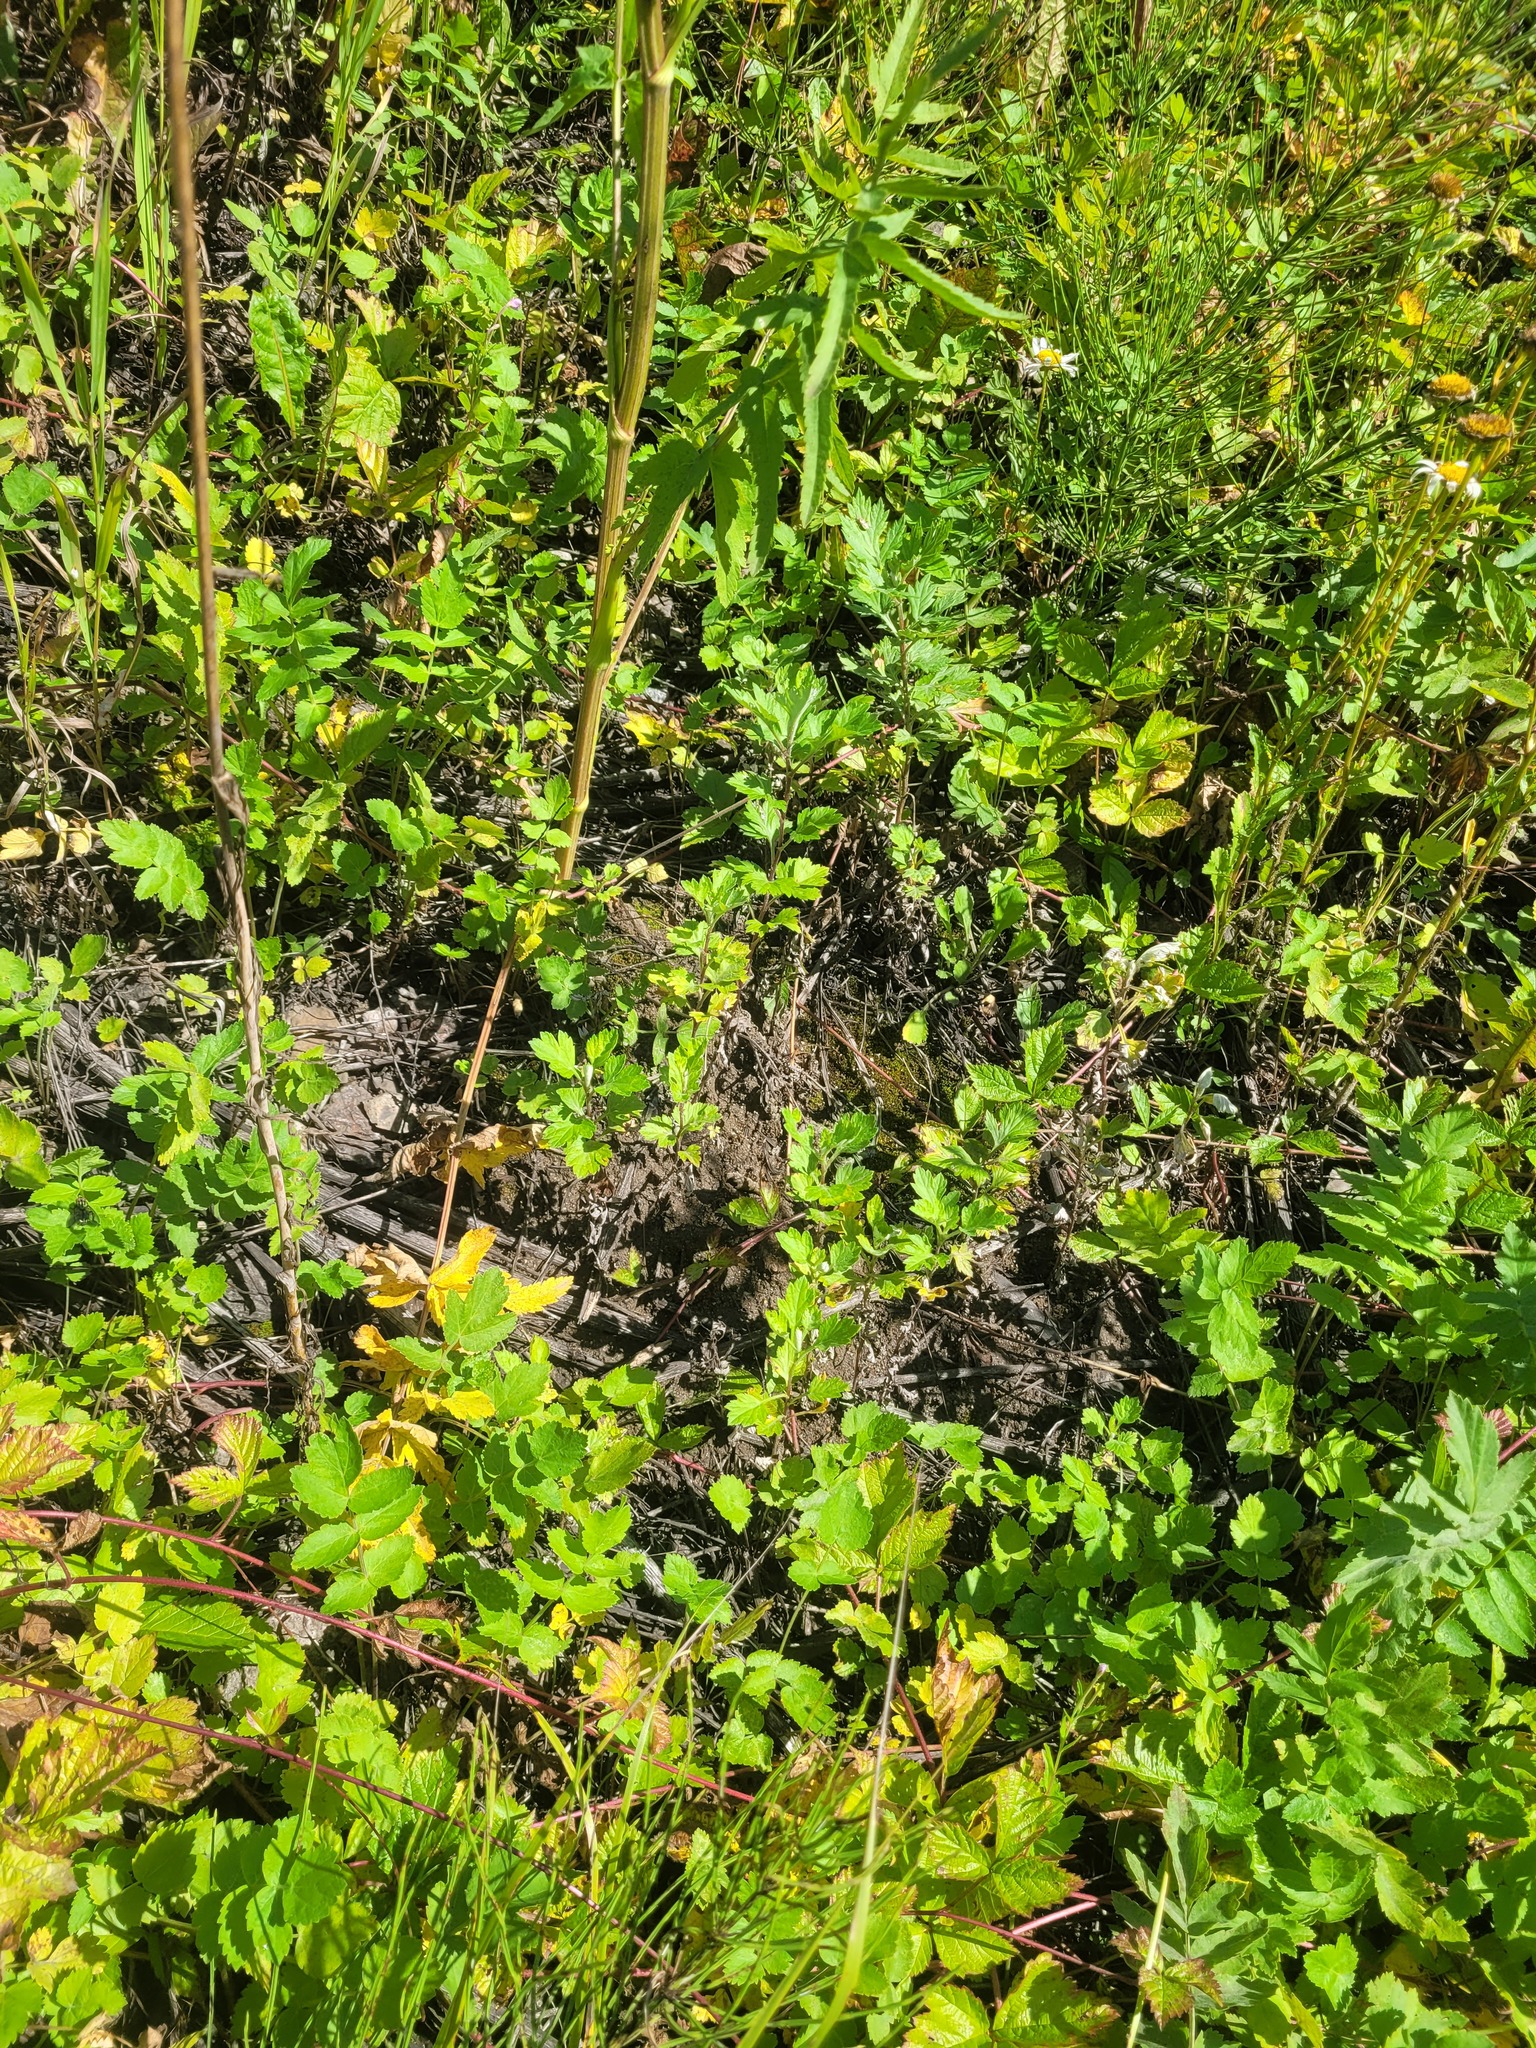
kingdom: Plantae
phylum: Tracheophyta
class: Magnoliopsida
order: Asterales
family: Asteraceae
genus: Artemisia
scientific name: Artemisia vulgaris
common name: Mugwort
